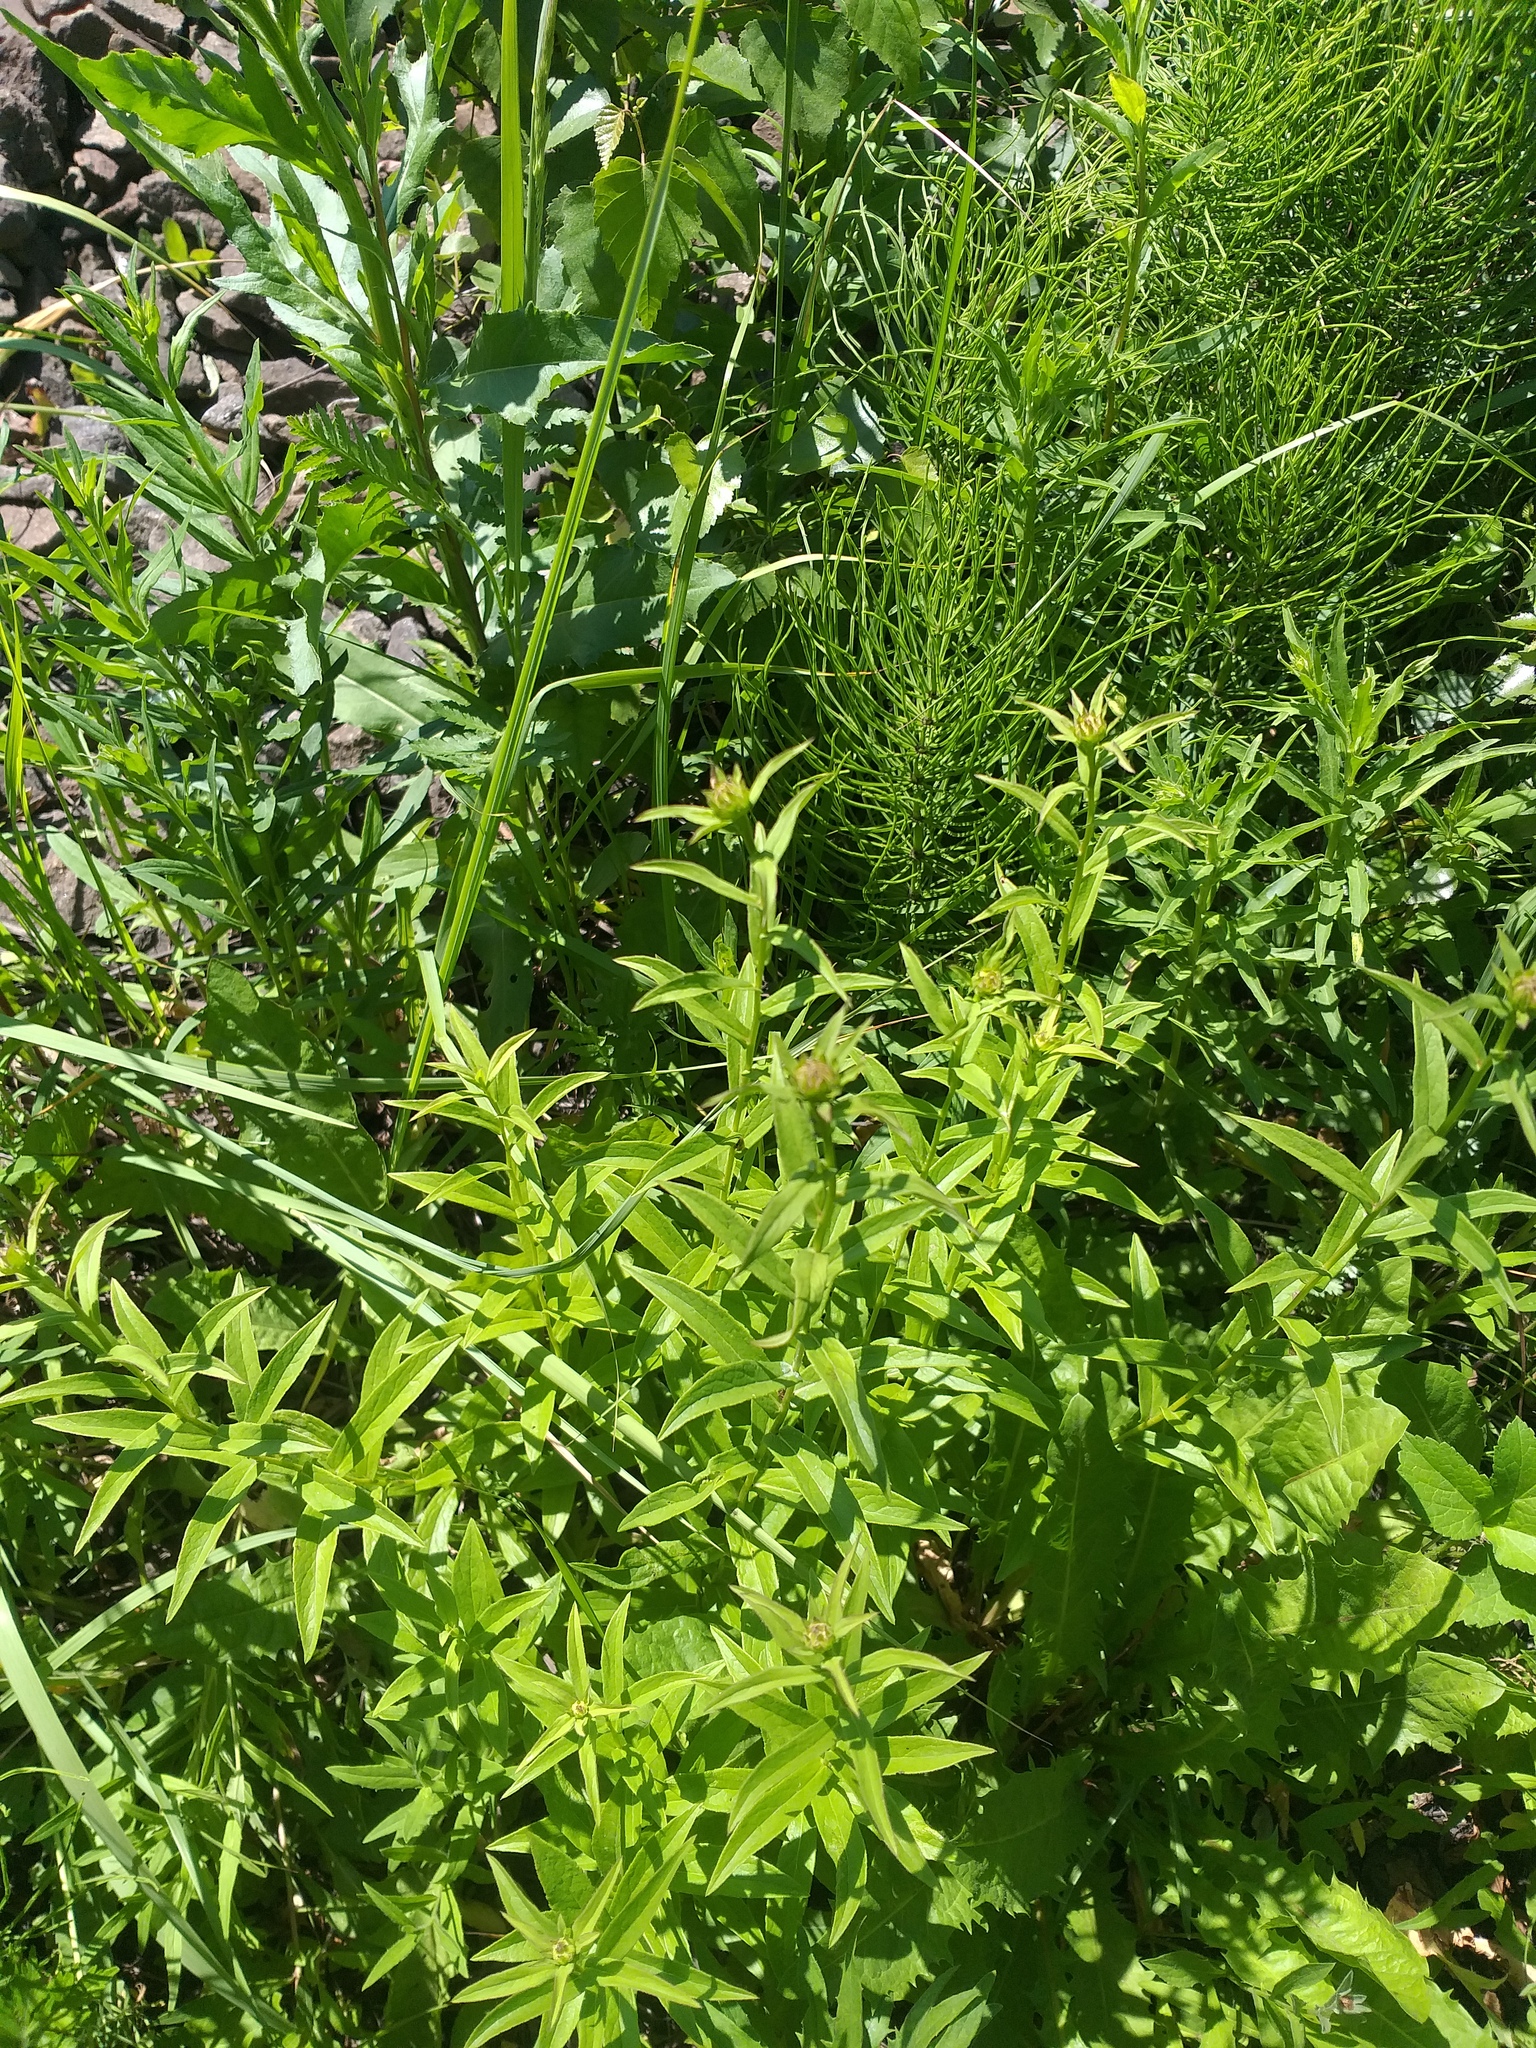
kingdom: Plantae
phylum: Tracheophyta
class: Magnoliopsida
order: Asterales
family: Asteraceae
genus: Pentanema
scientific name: Pentanema salicinum
